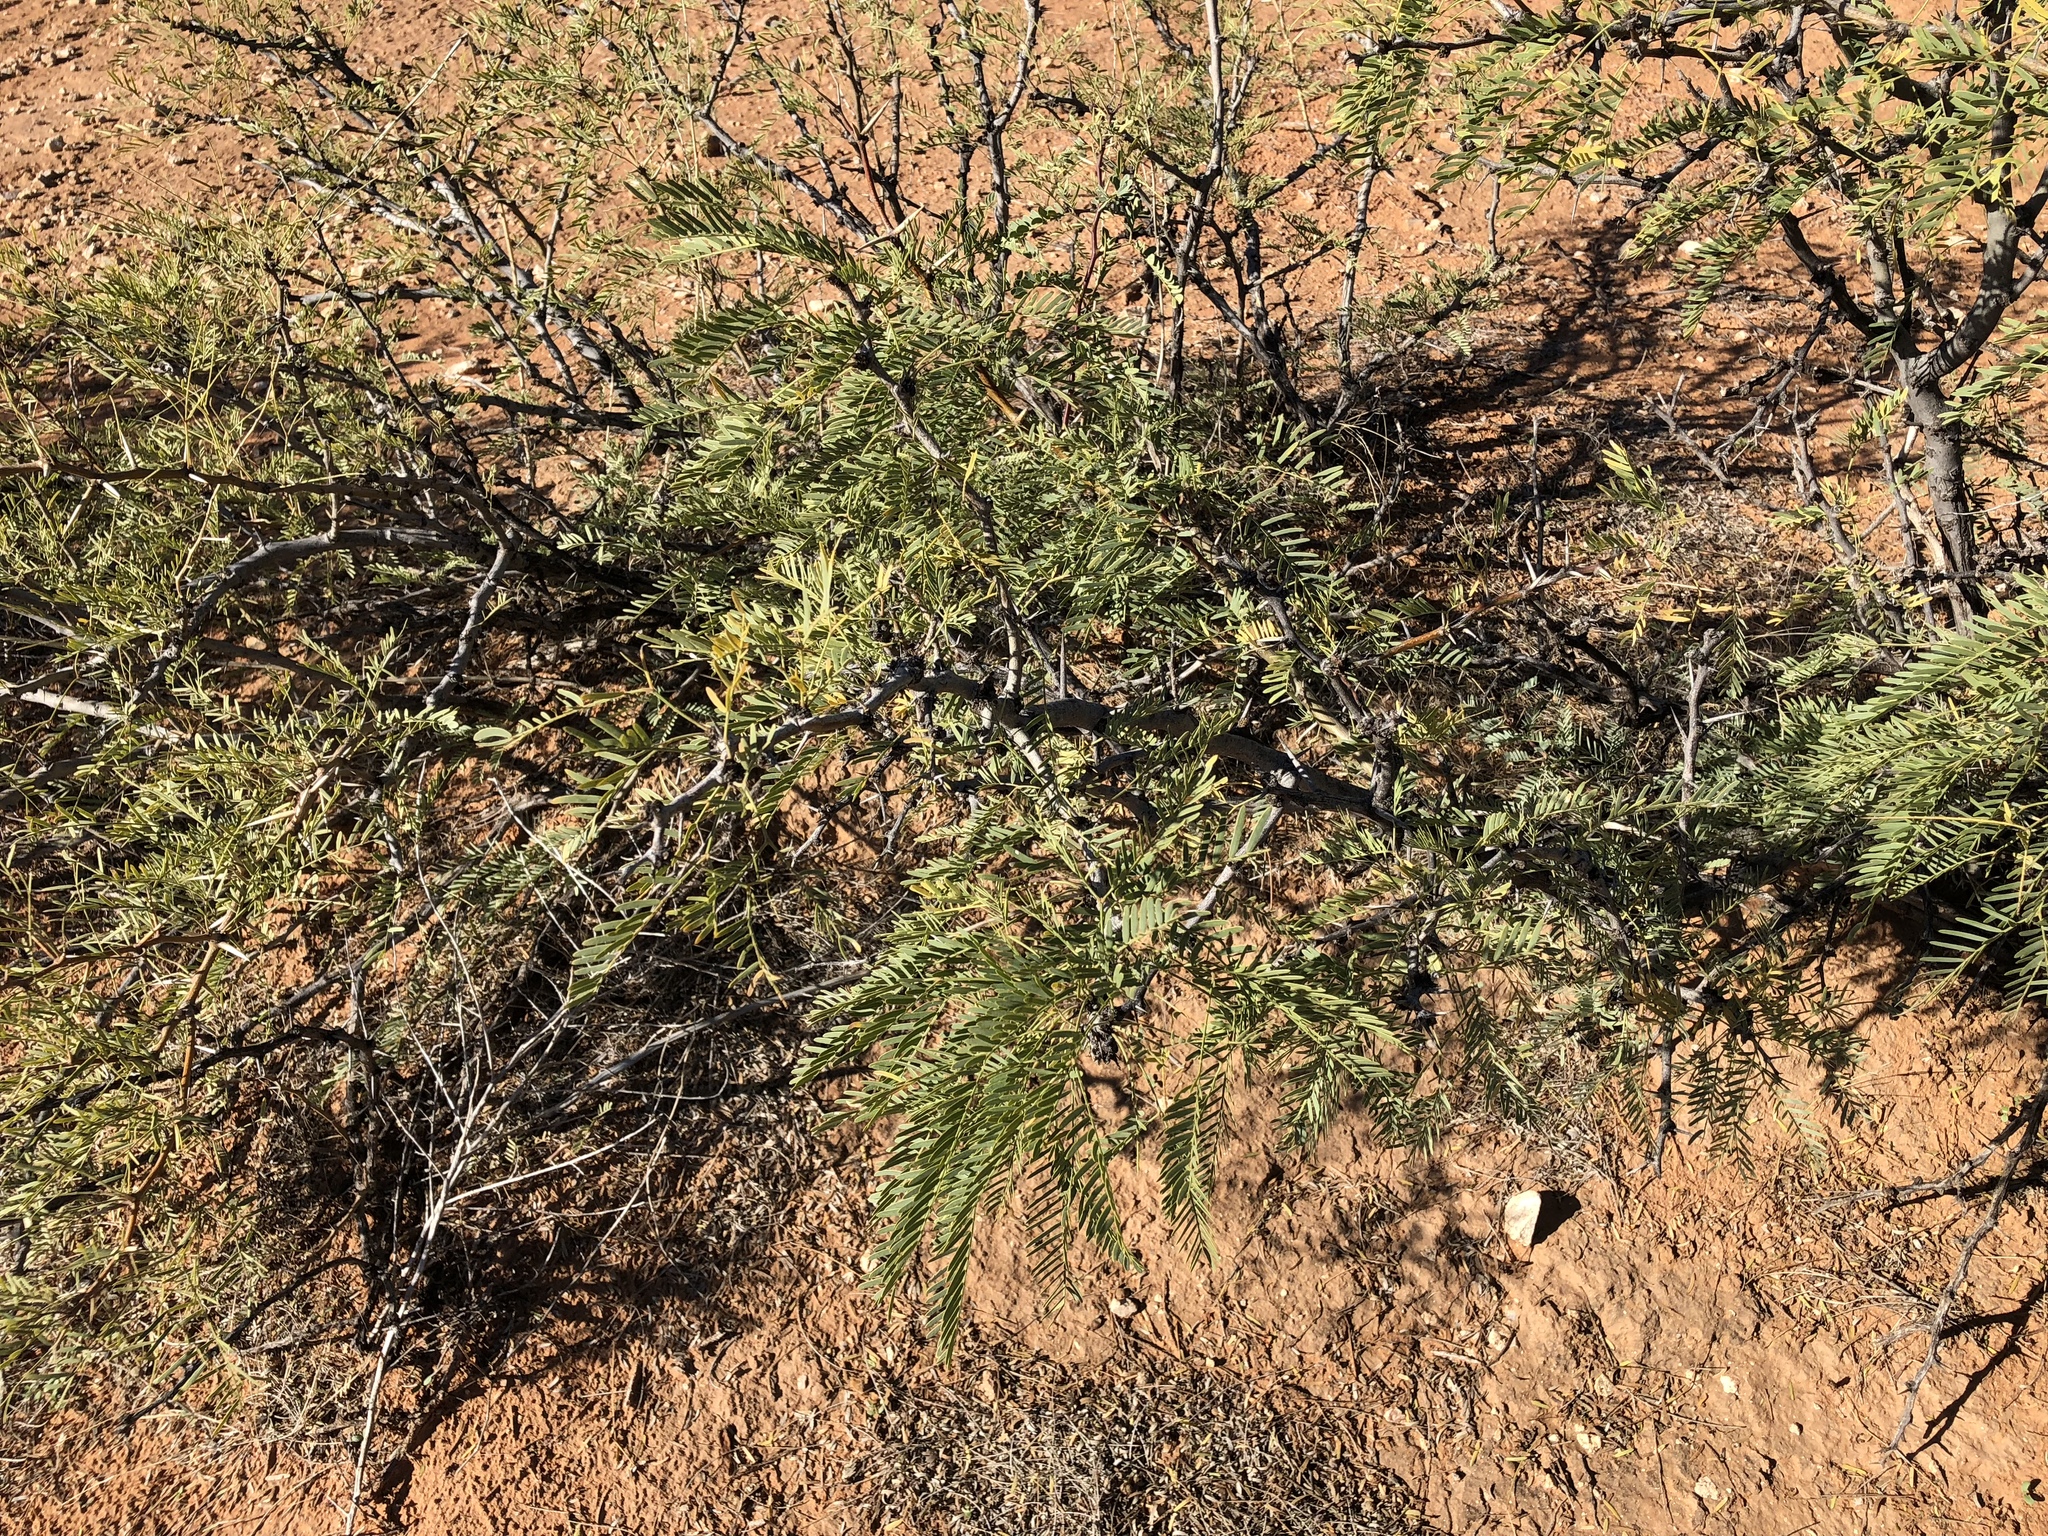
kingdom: Plantae
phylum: Tracheophyta
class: Magnoliopsida
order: Fabales
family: Fabaceae
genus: Prosopis
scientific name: Prosopis glandulosa
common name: Honey mesquite
